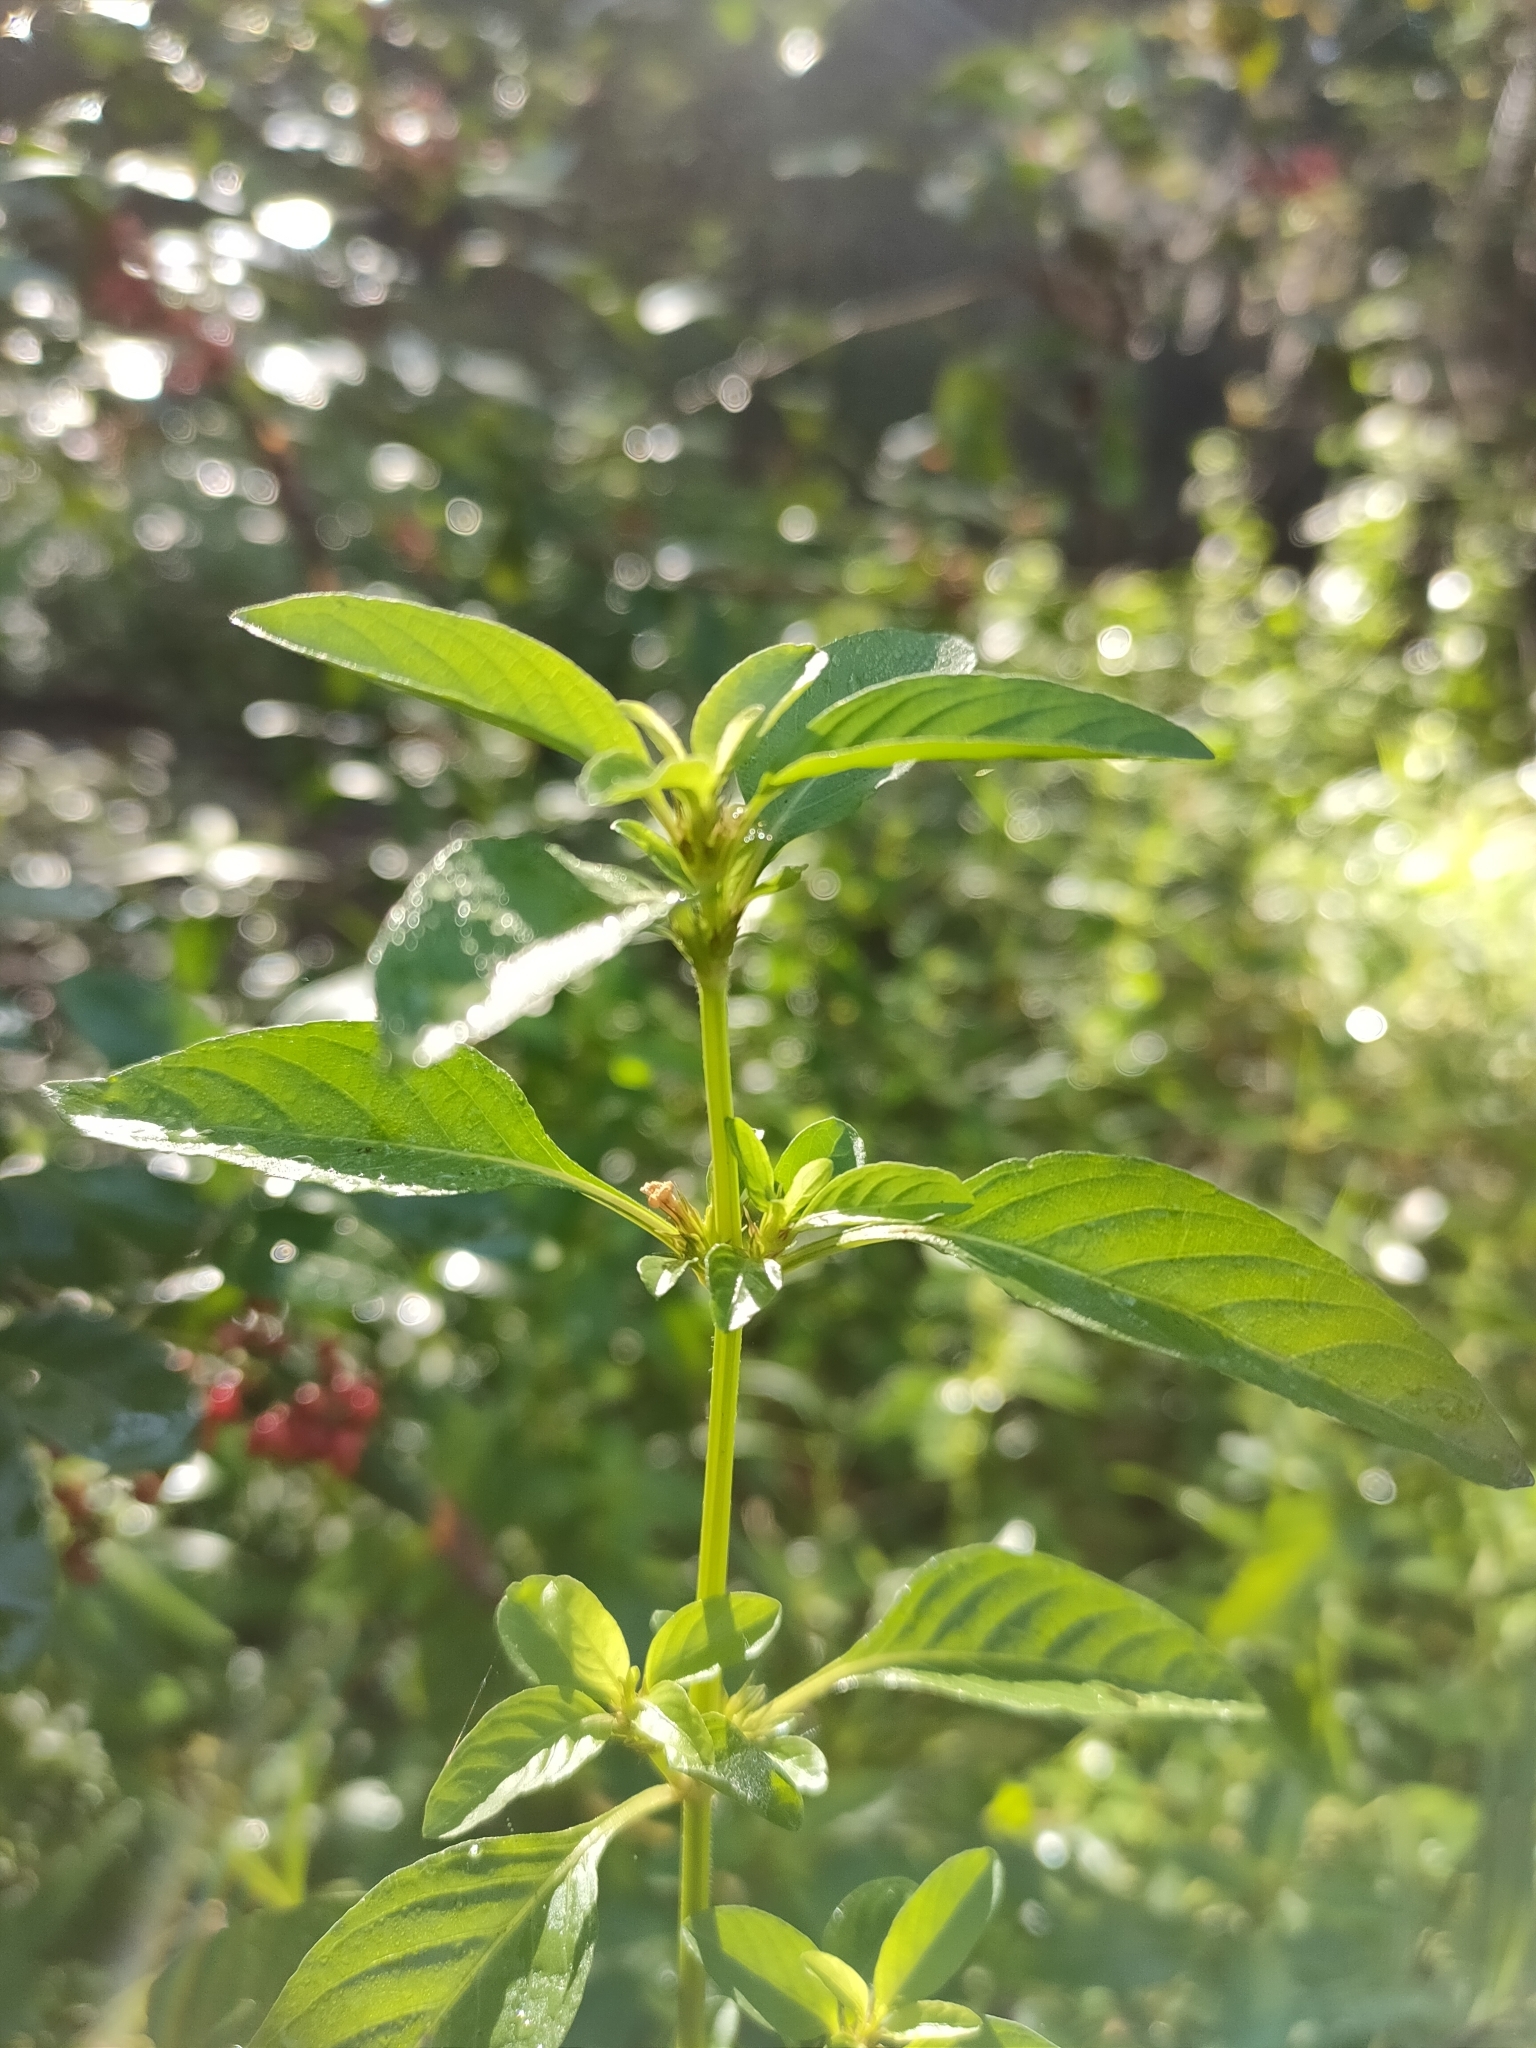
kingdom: Plantae
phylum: Tracheophyta
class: Magnoliopsida
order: Lamiales
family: Acanthaceae
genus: Hygrophila
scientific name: Hygrophila erecta
